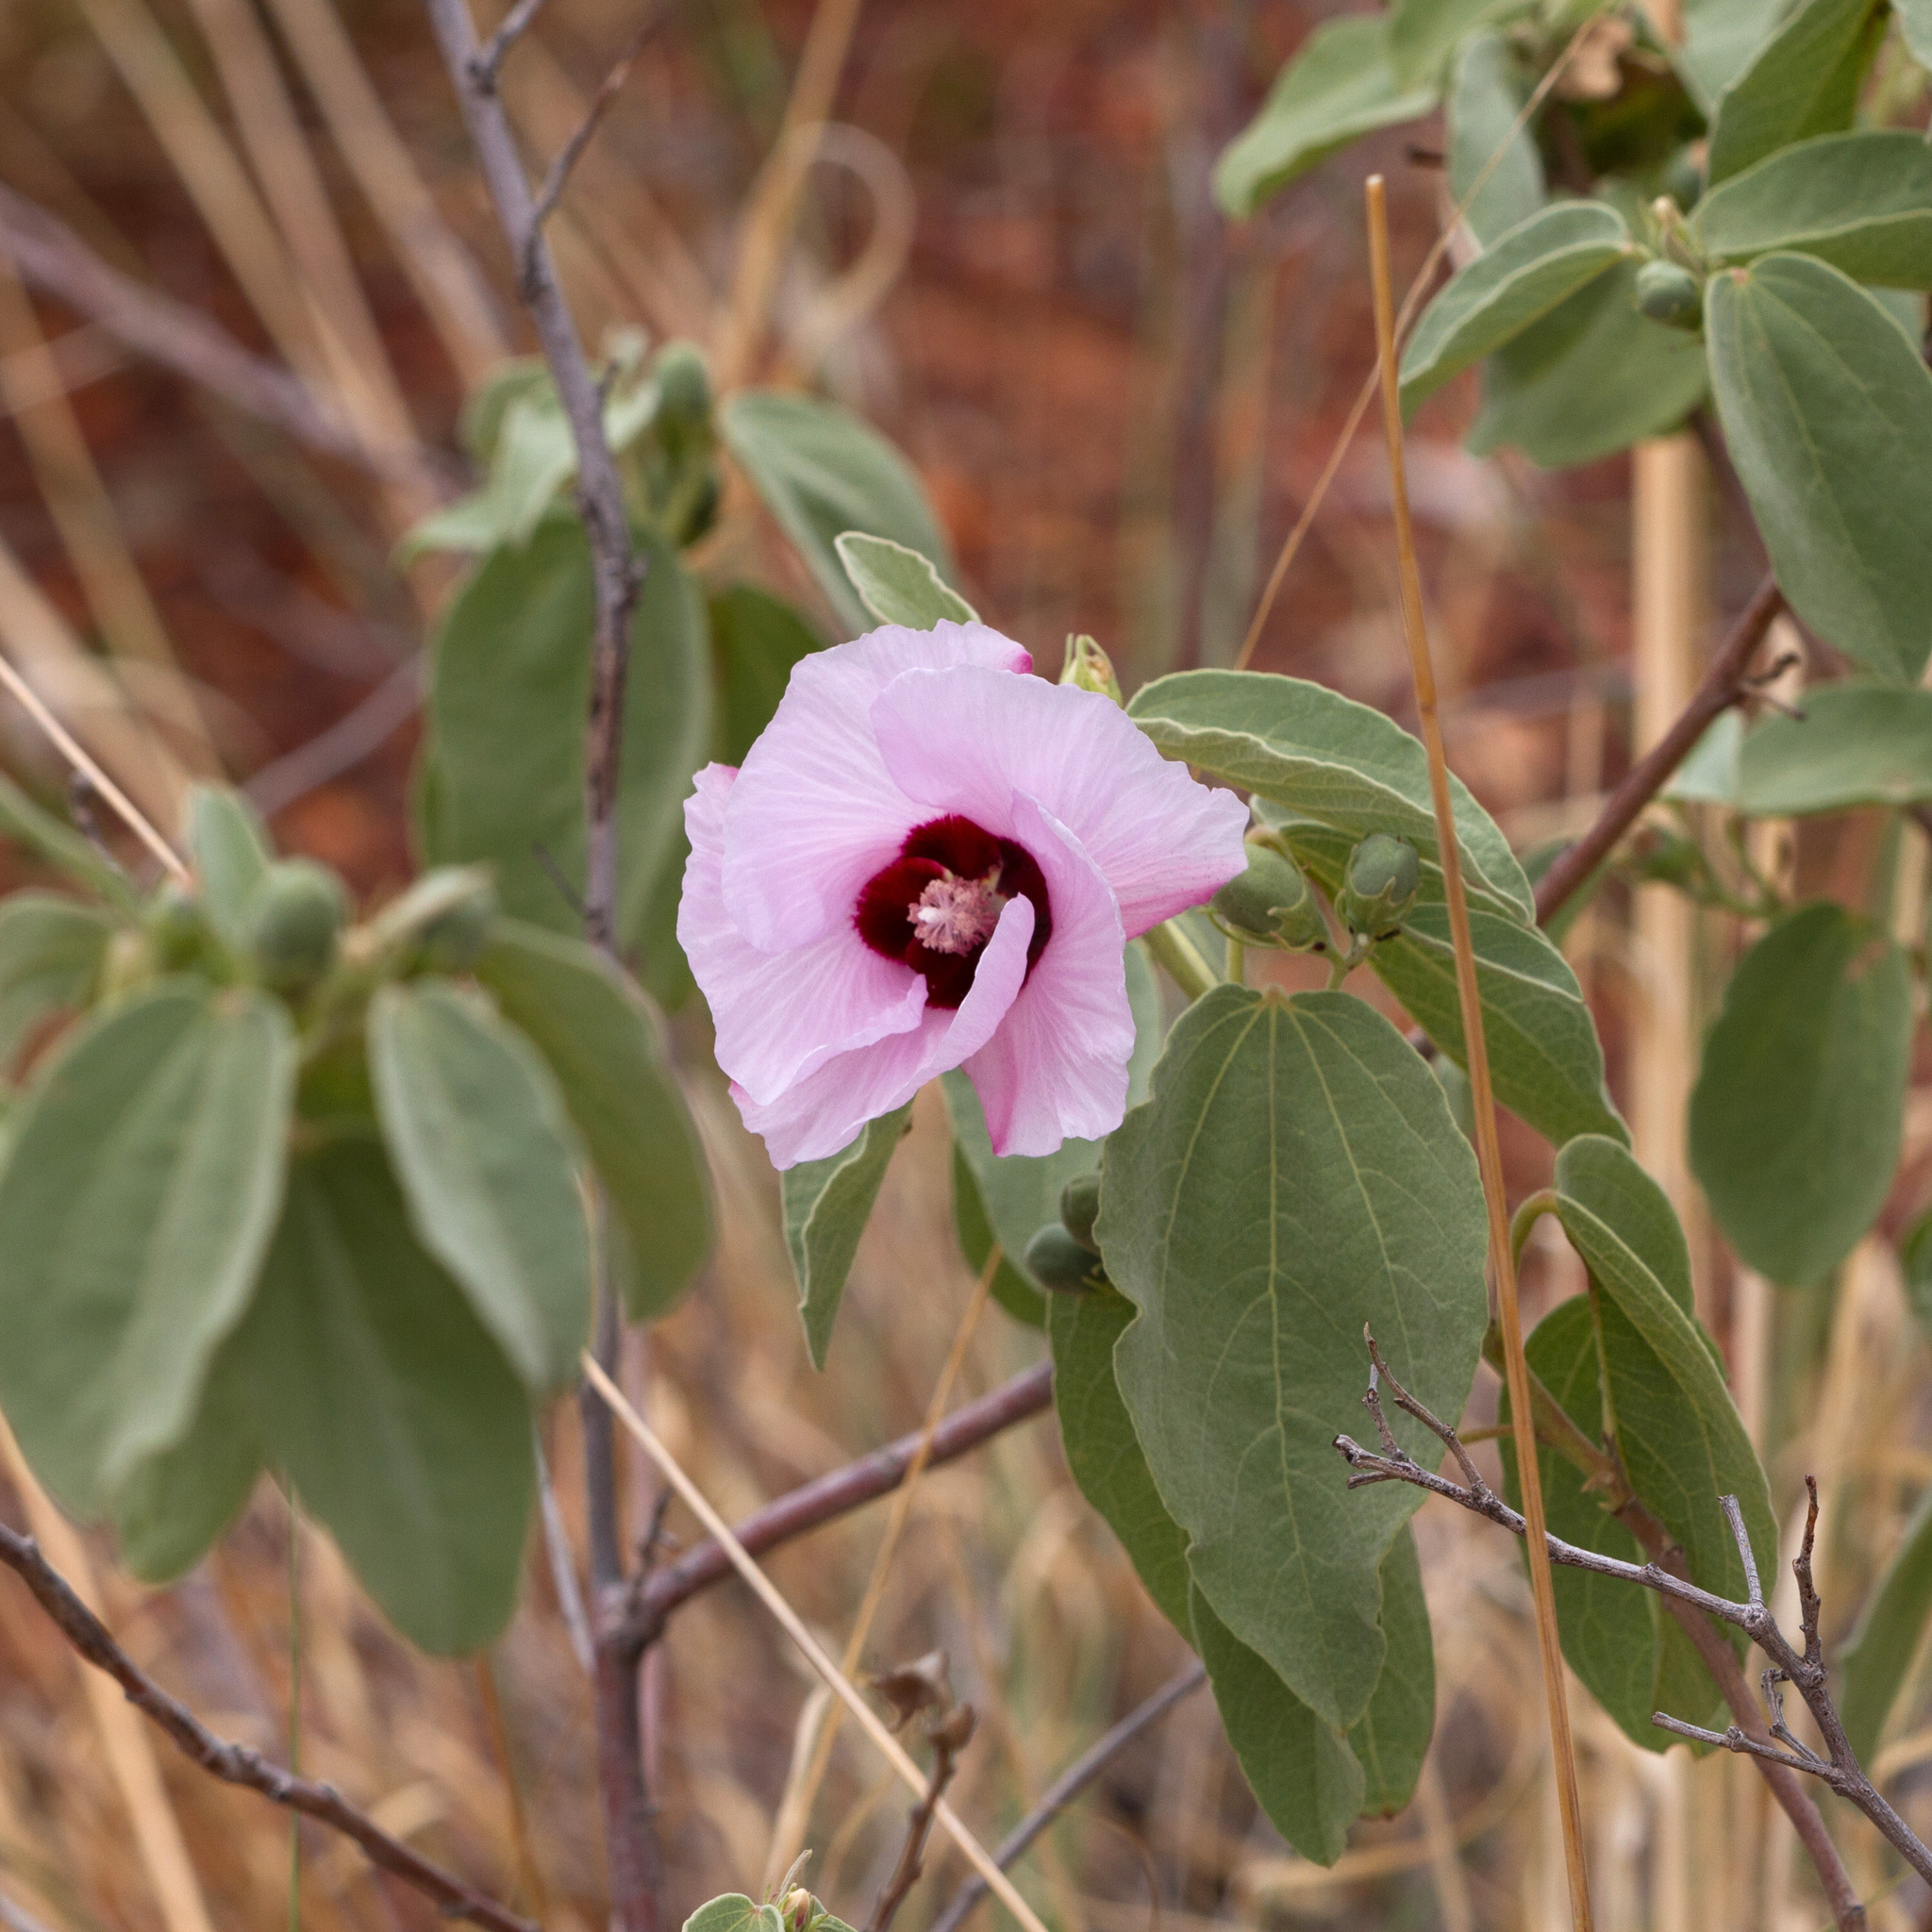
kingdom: Plantae
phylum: Tracheophyta
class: Magnoliopsida
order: Malvales
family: Malvaceae
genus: Cienfuegosia
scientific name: Cienfuegosia australis
